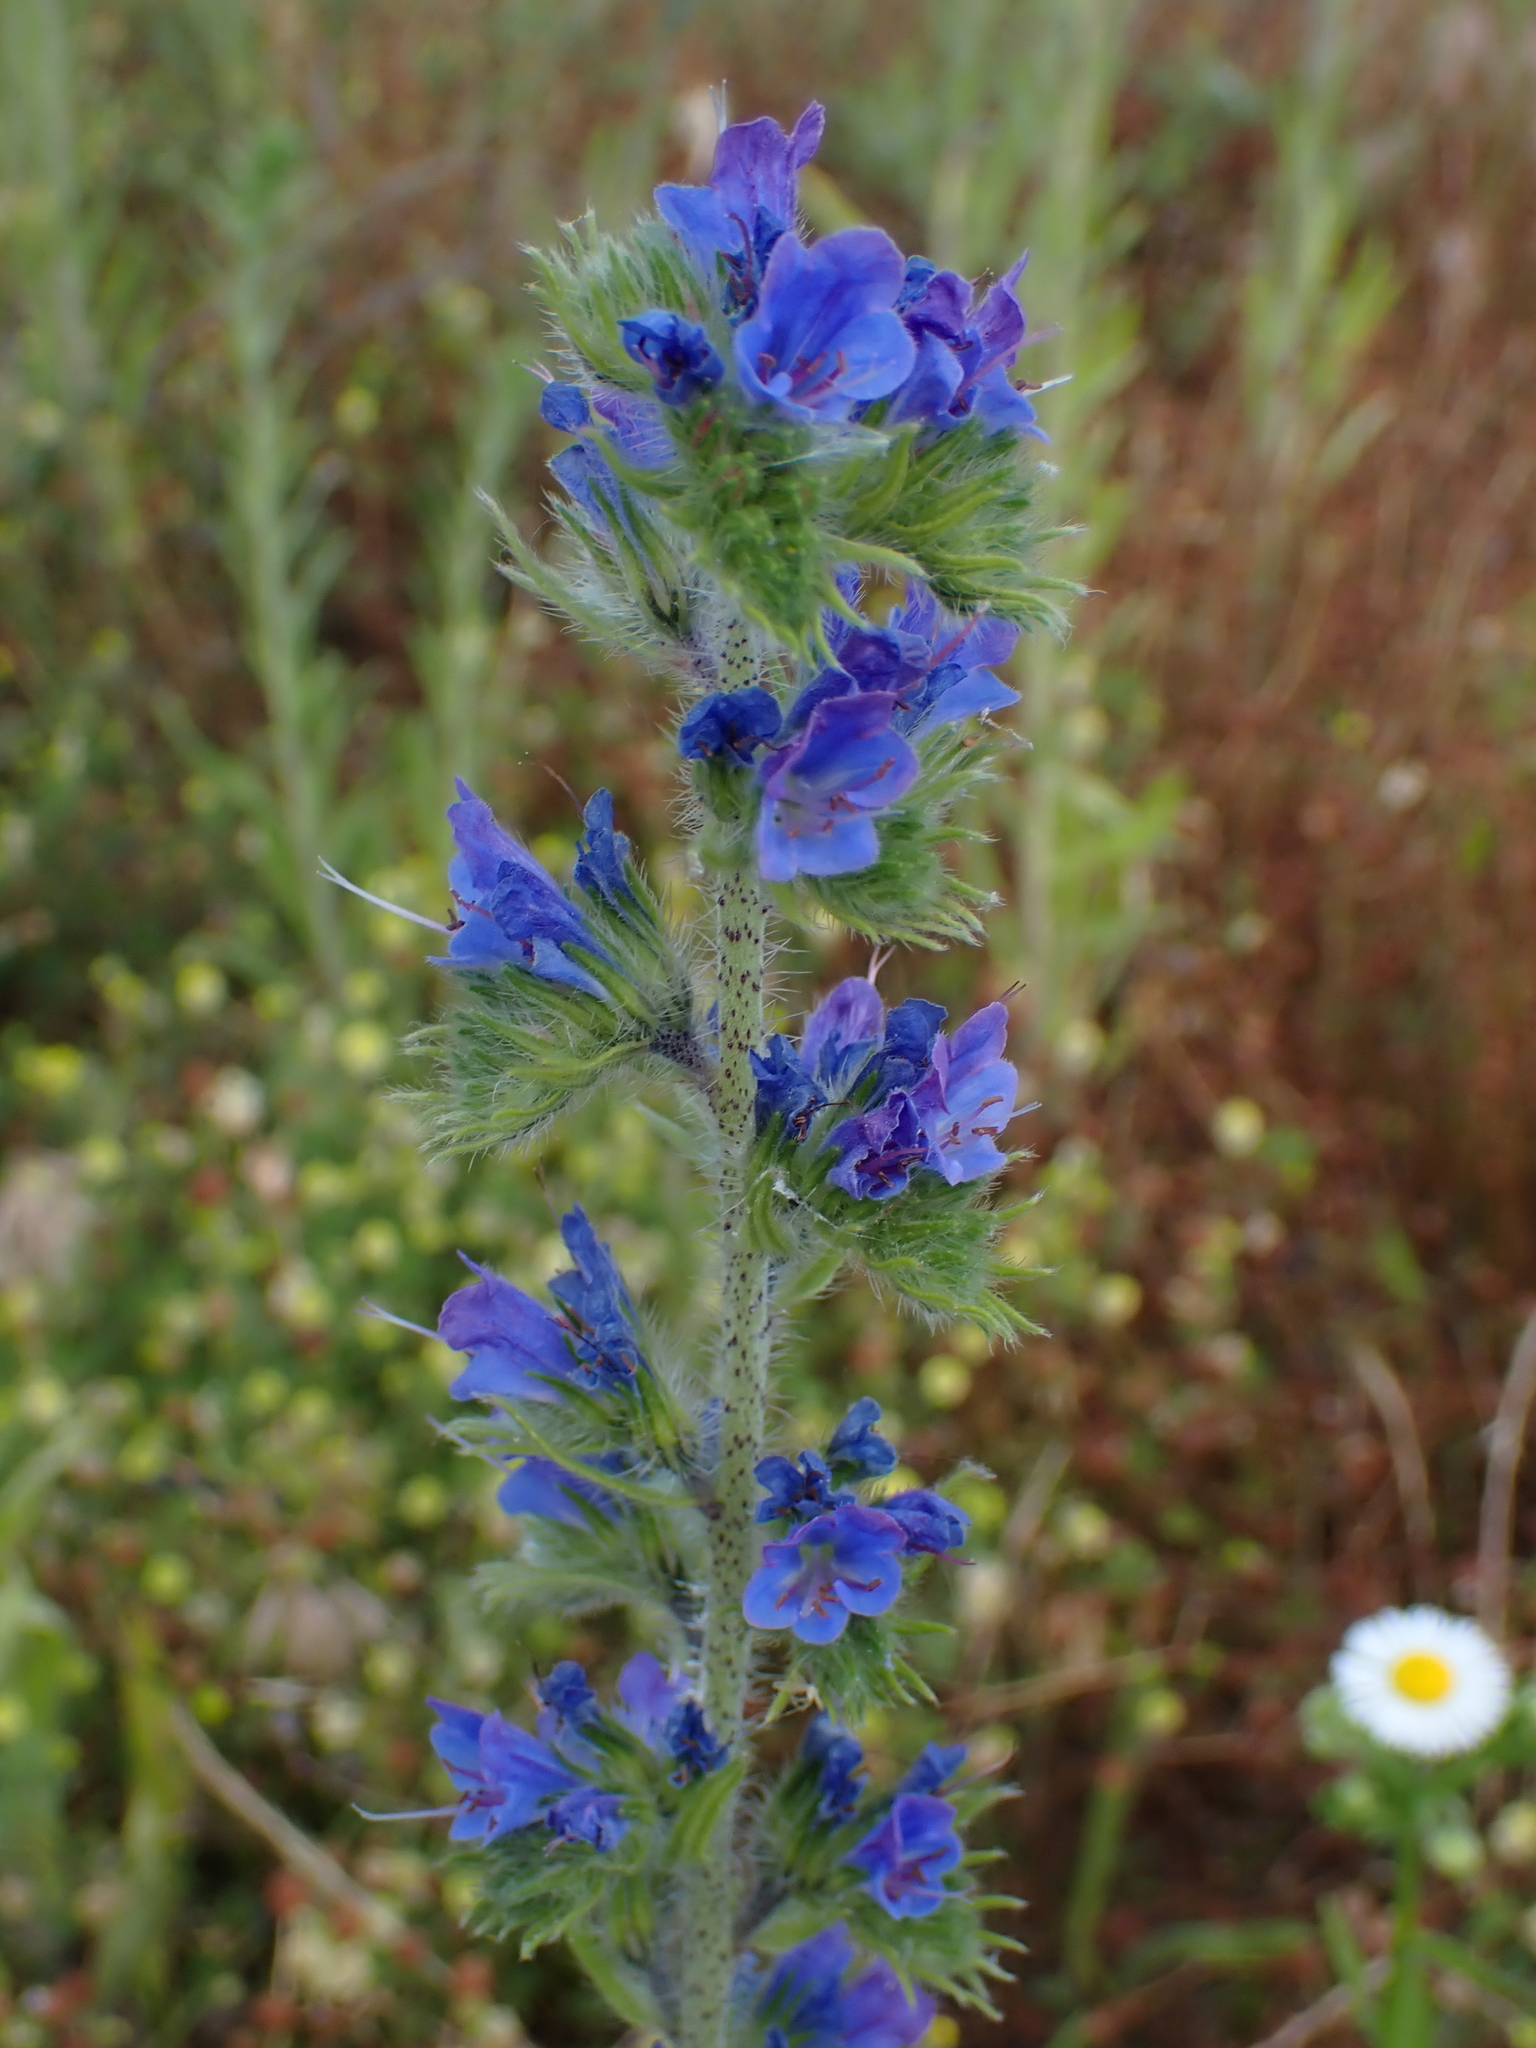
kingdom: Plantae
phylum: Tracheophyta
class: Magnoliopsida
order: Boraginales
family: Boraginaceae
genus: Echium
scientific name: Echium vulgare
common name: Common viper's bugloss
